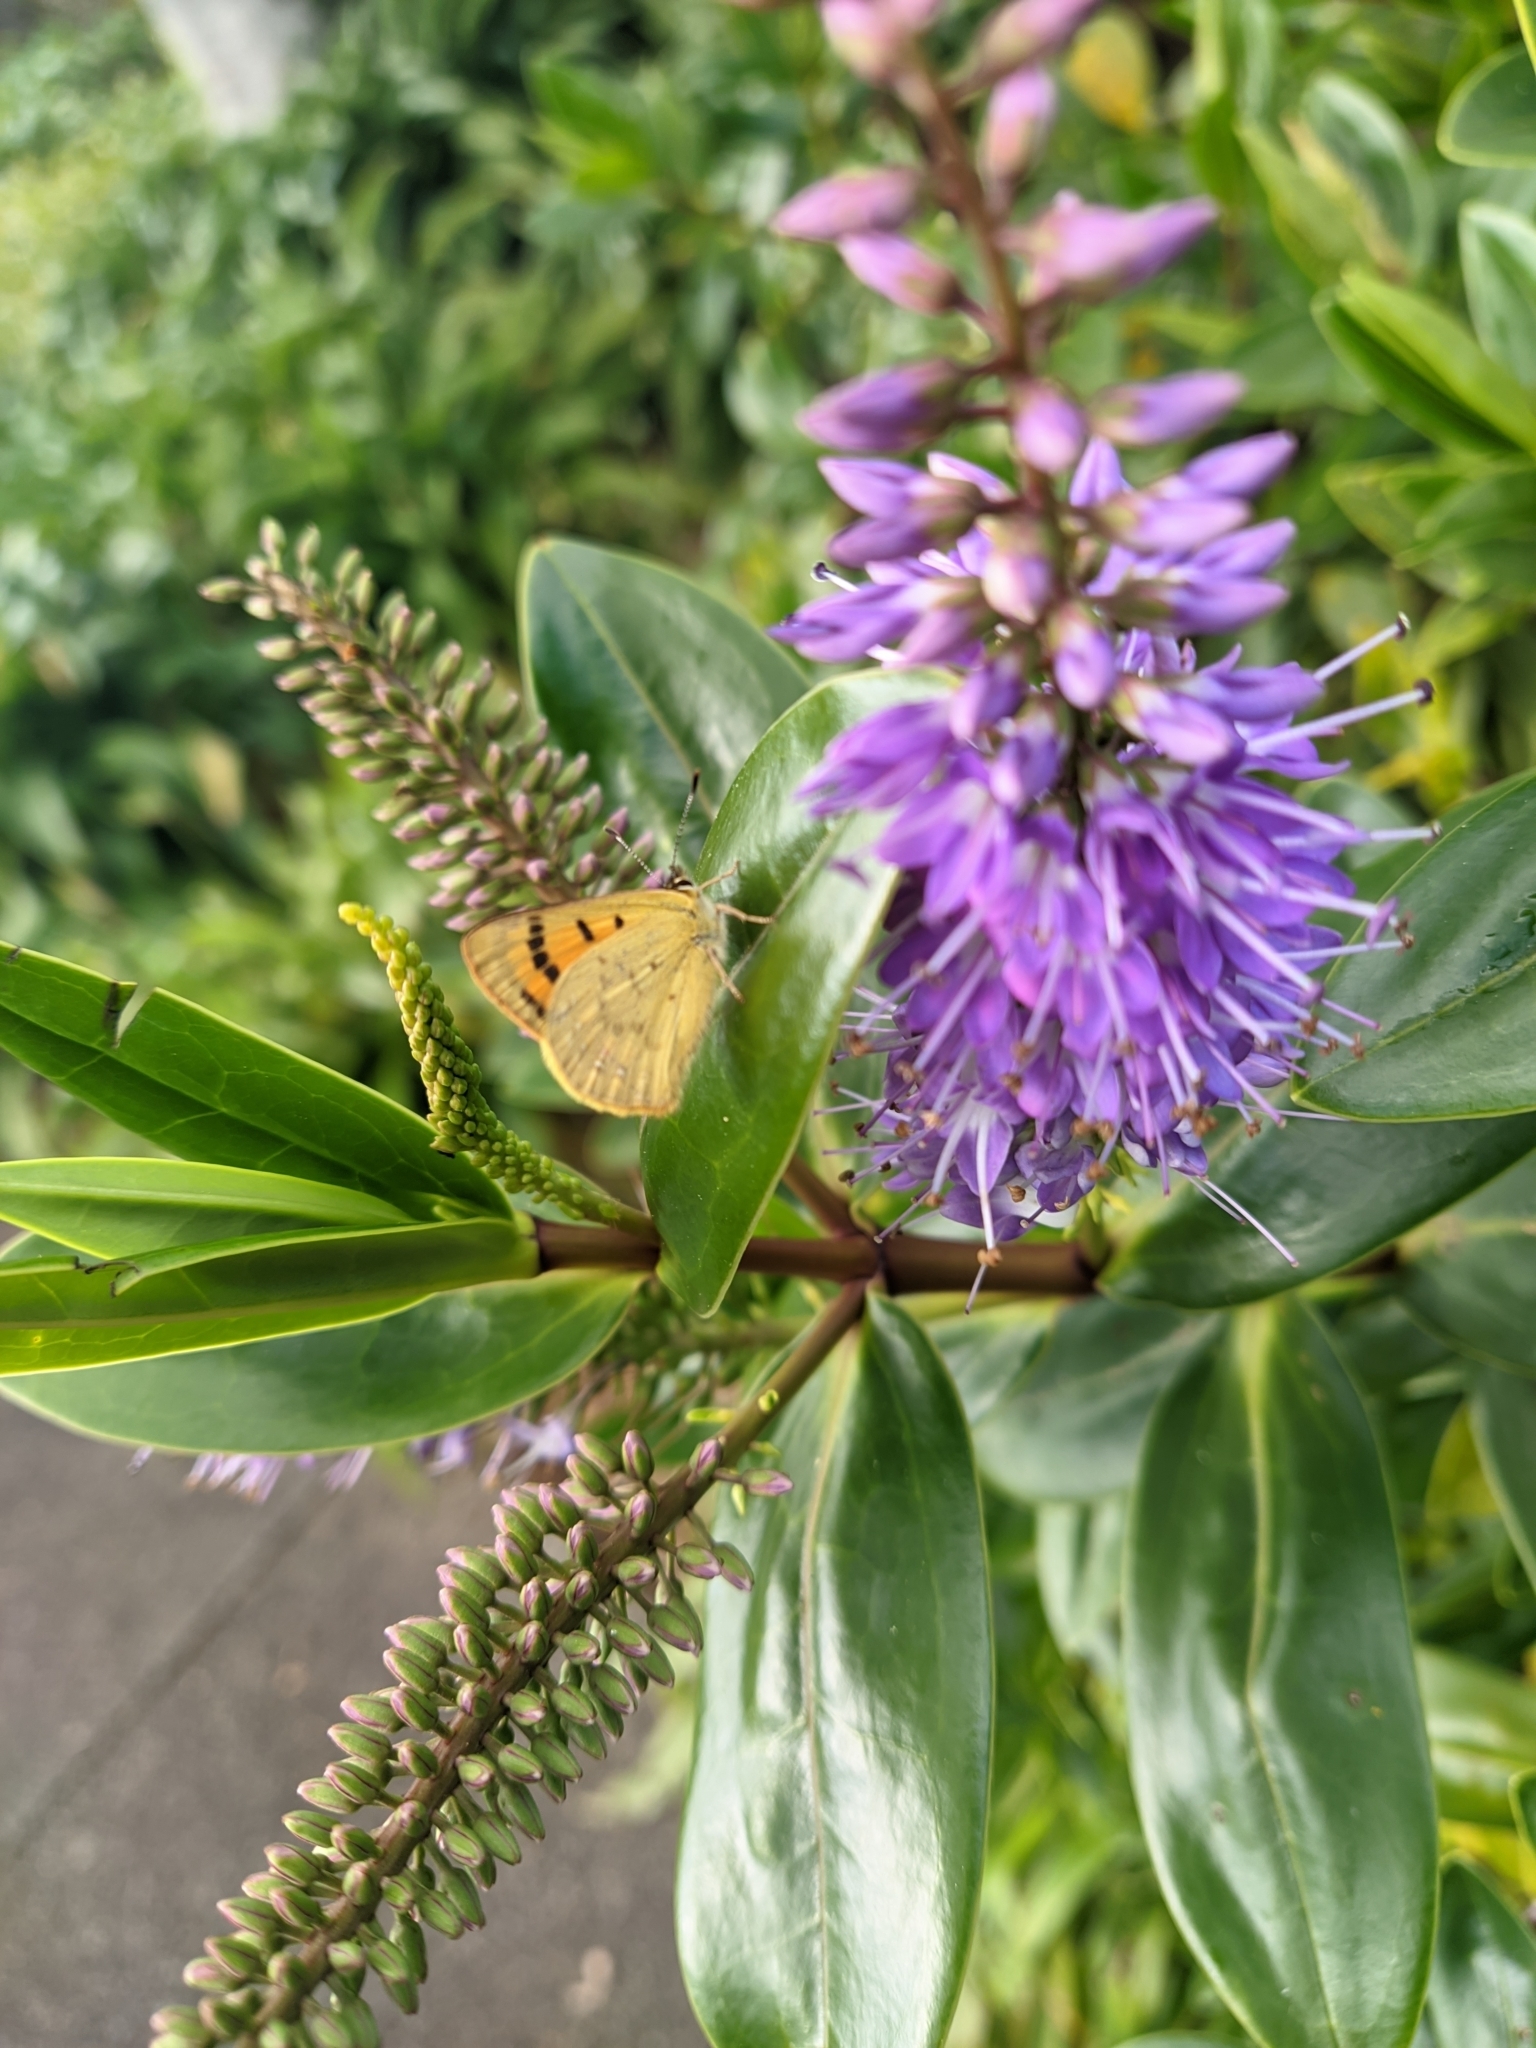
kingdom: Animalia
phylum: Arthropoda
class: Insecta
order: Lepidoptera
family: Lycaenidae
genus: Lycaena
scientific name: Lycaena salustius
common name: North island coastal copper
